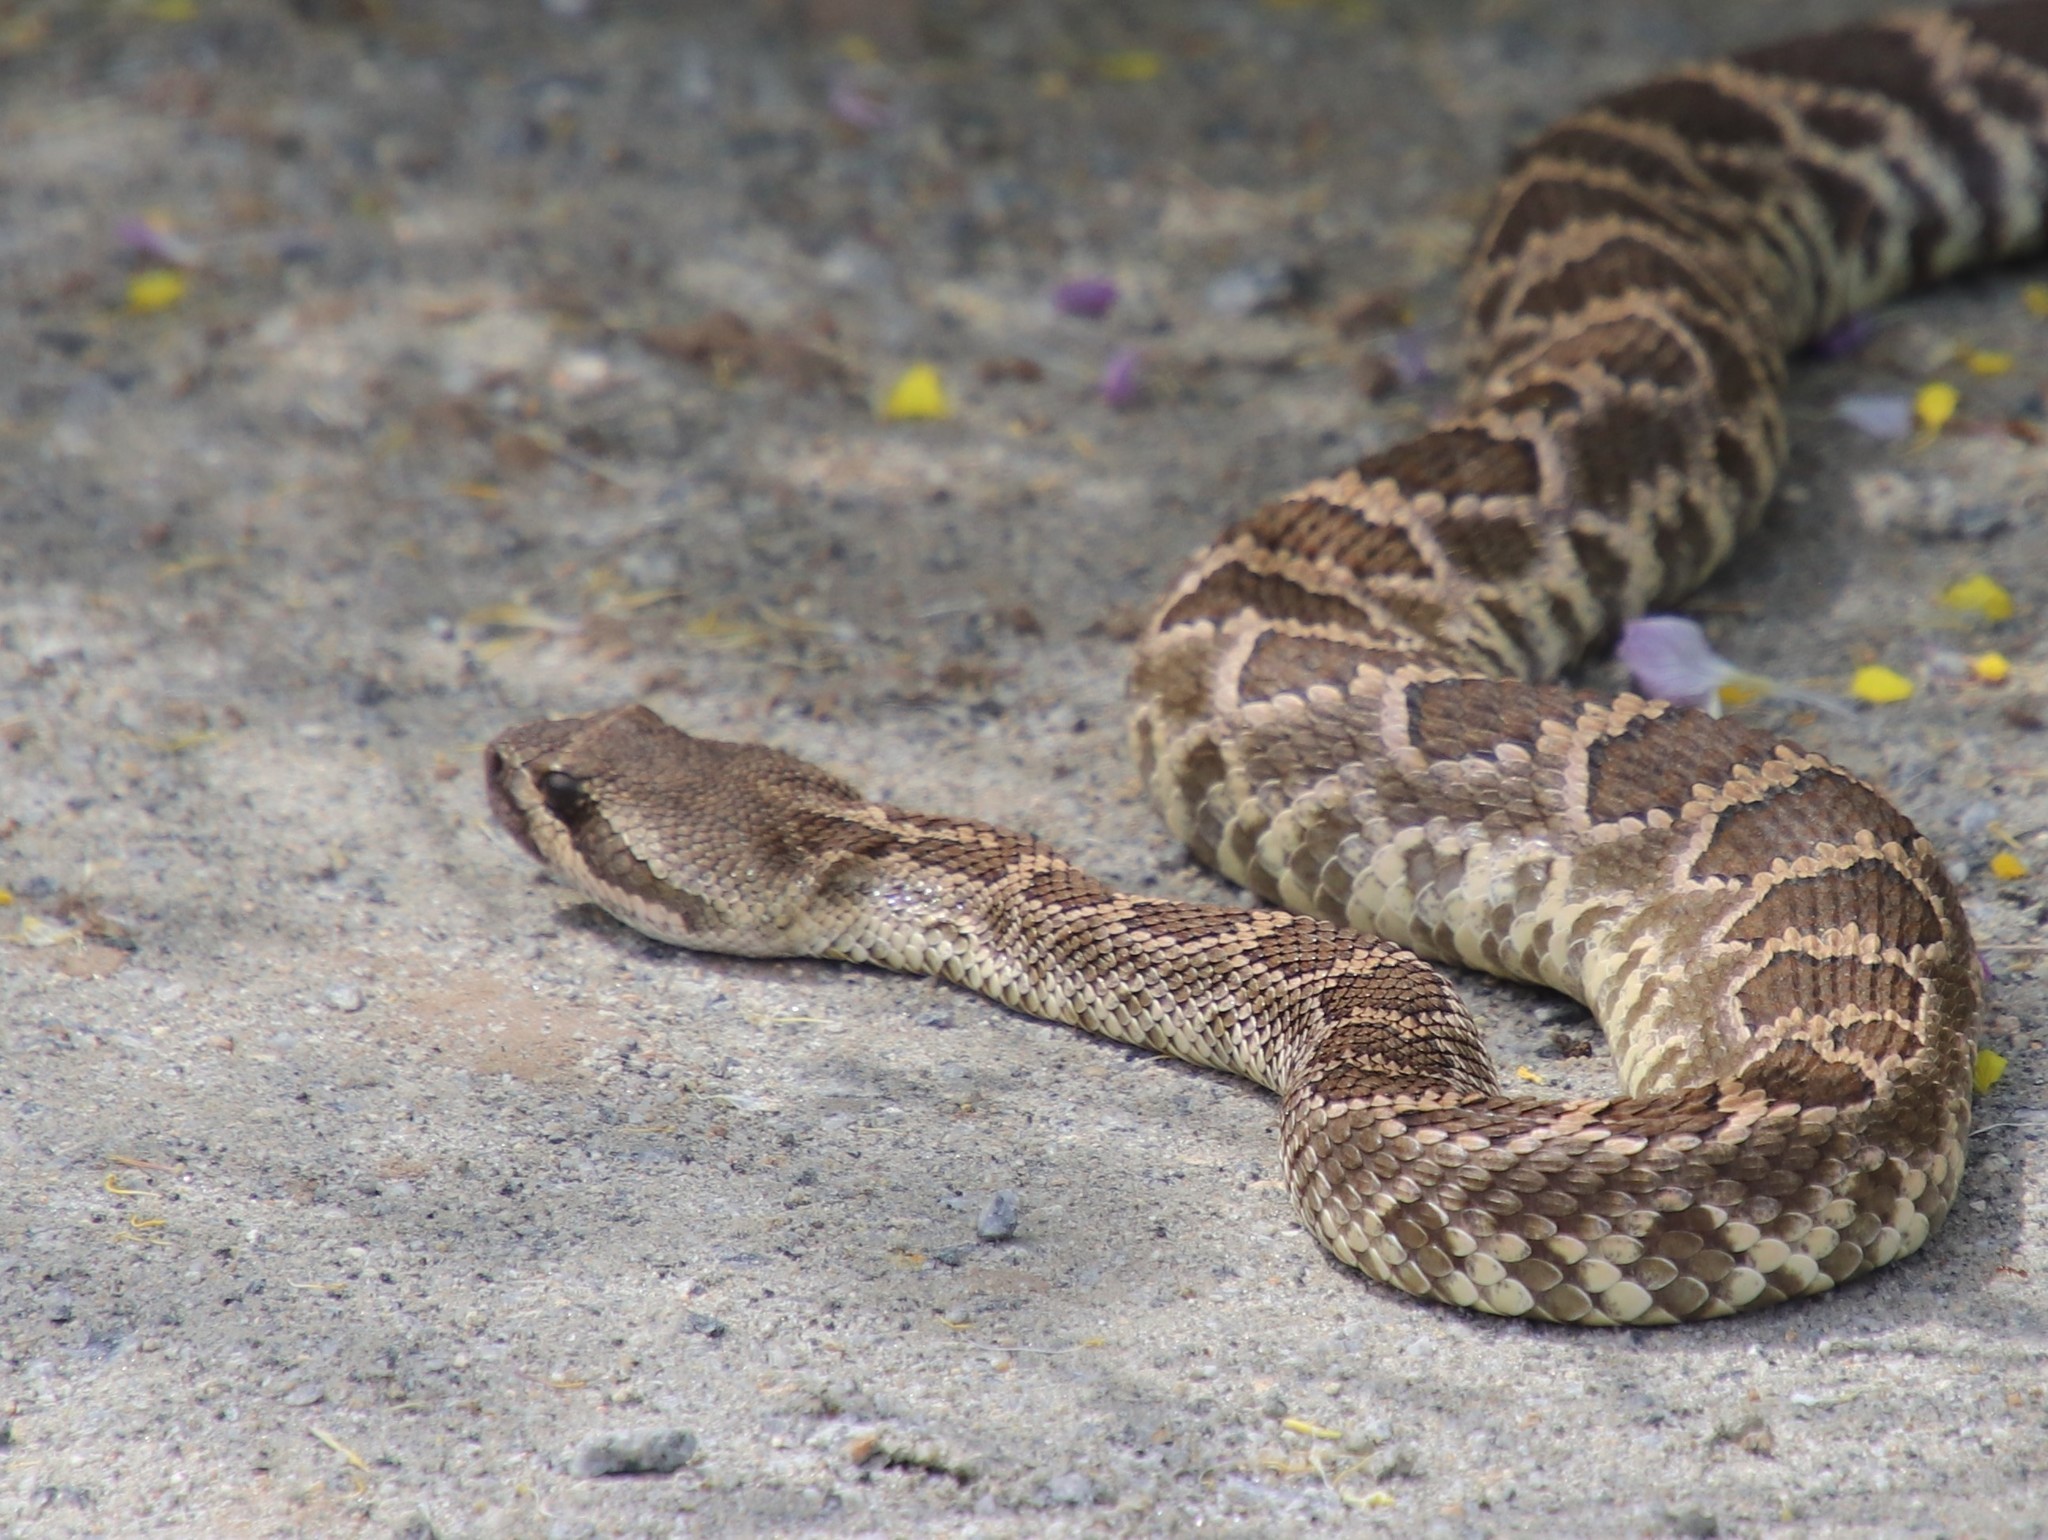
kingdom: Animalia
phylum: Chordata
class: Squamata
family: Viperidae
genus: Crotalus
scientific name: Crotalus oreganus
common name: Abyssus
